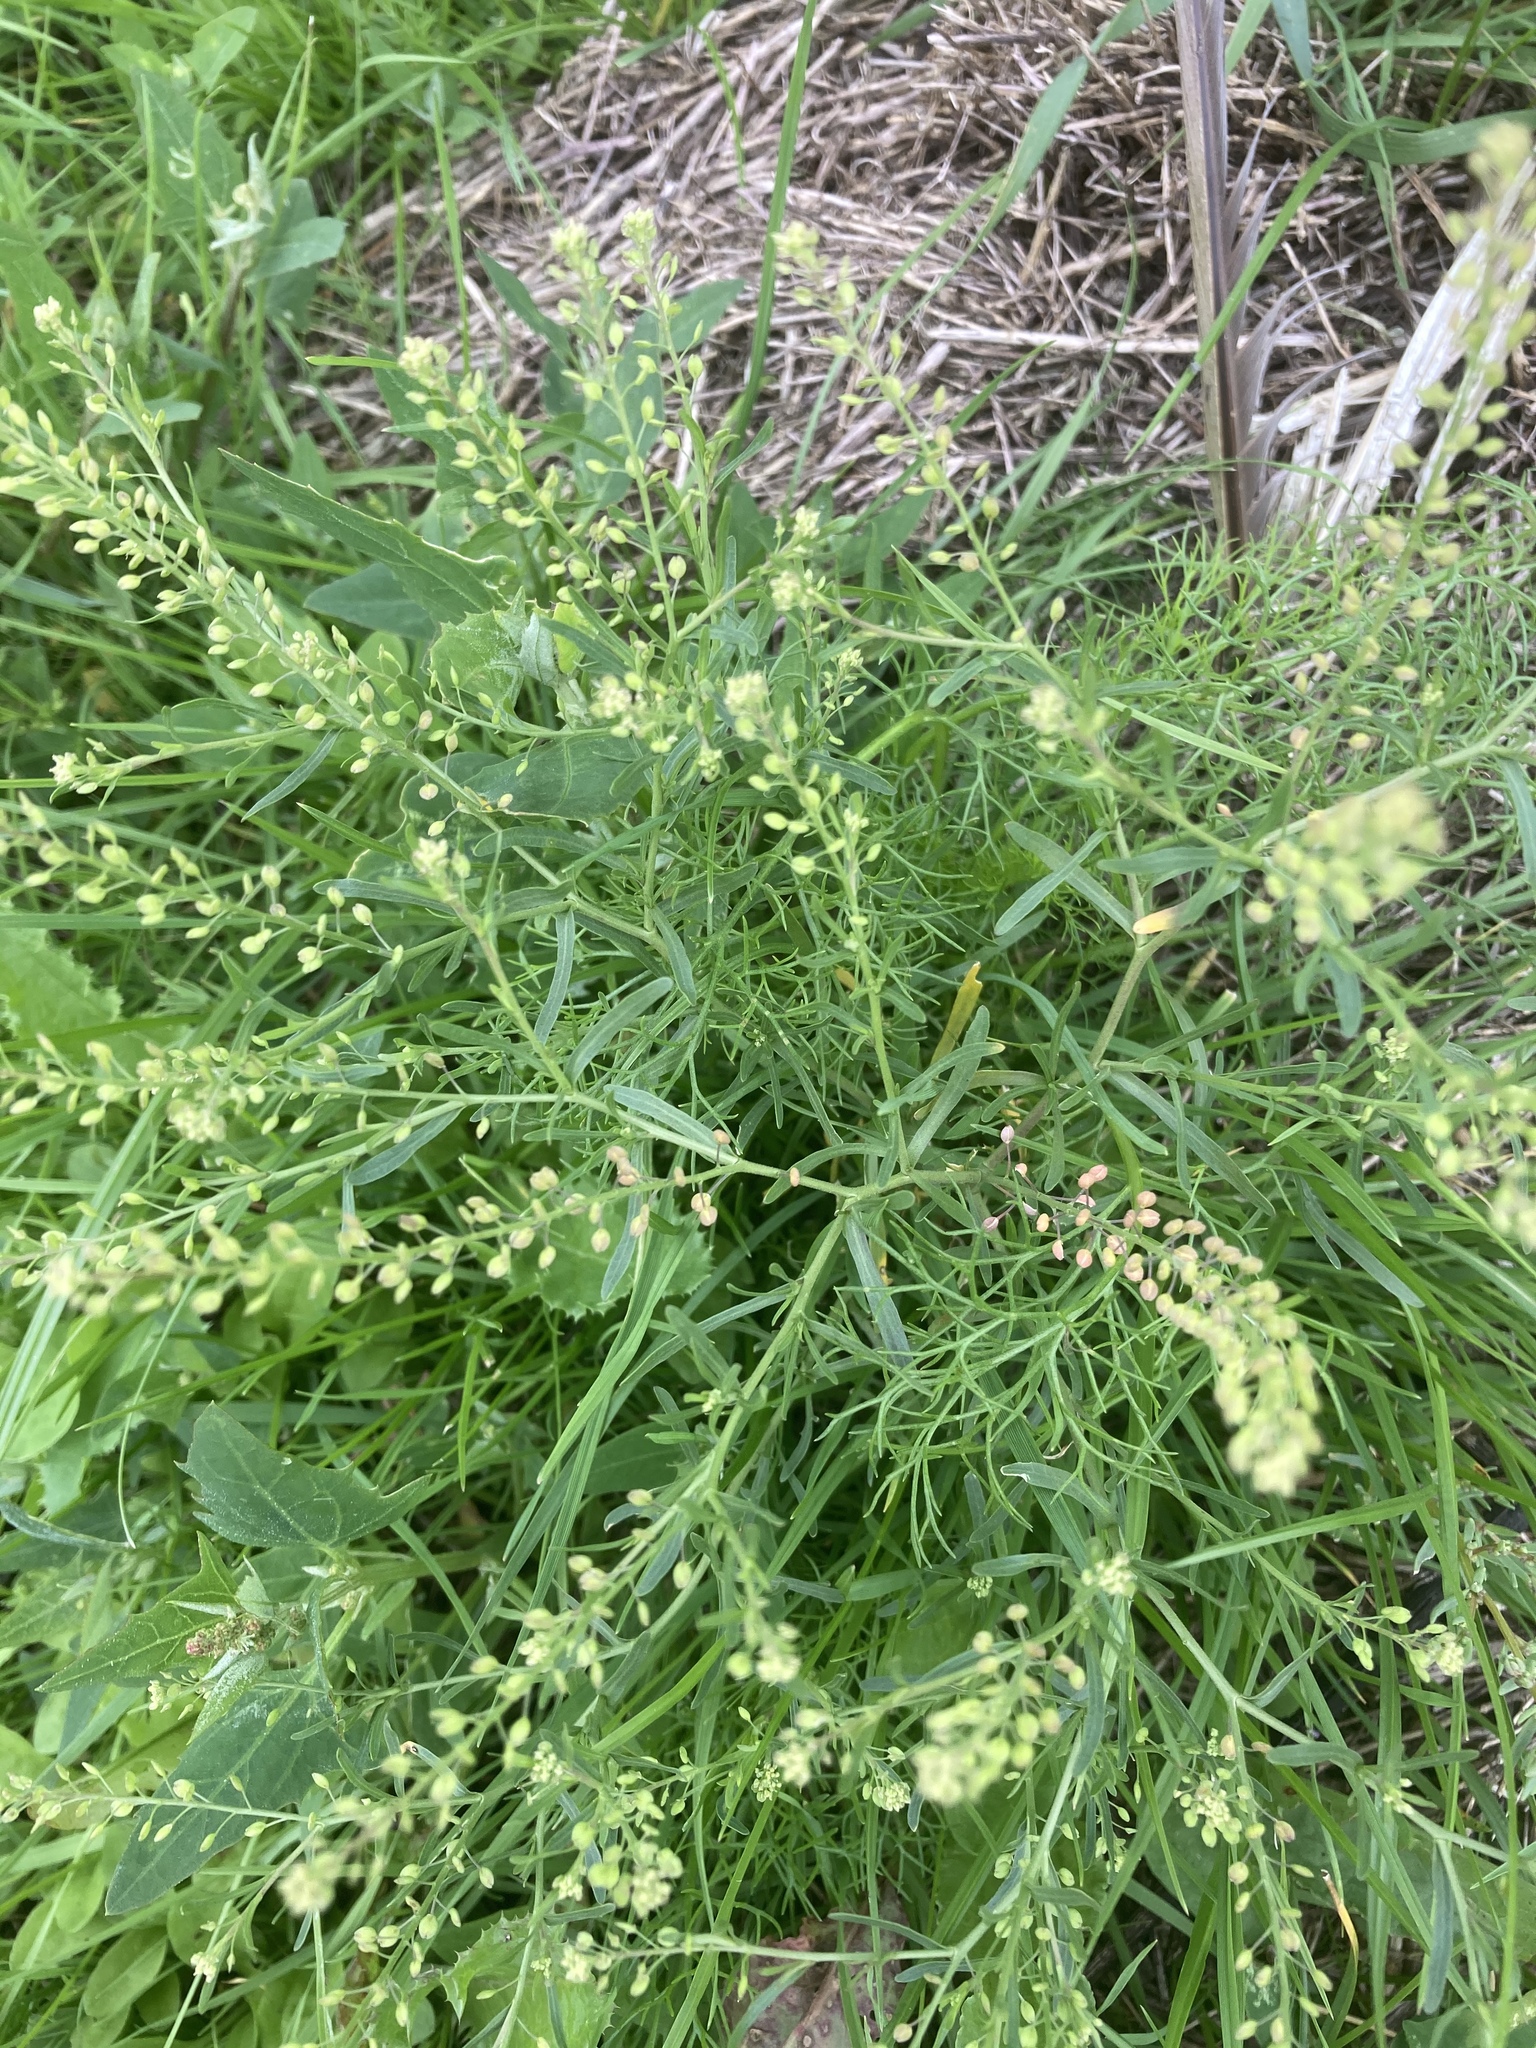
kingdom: Plantae
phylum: Tracheophyta
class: Magnoliopsida
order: Brassicales
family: Brassicaceae
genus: Lepidium
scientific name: Lepidium ruderale
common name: Narrow-leaved pepperwort
